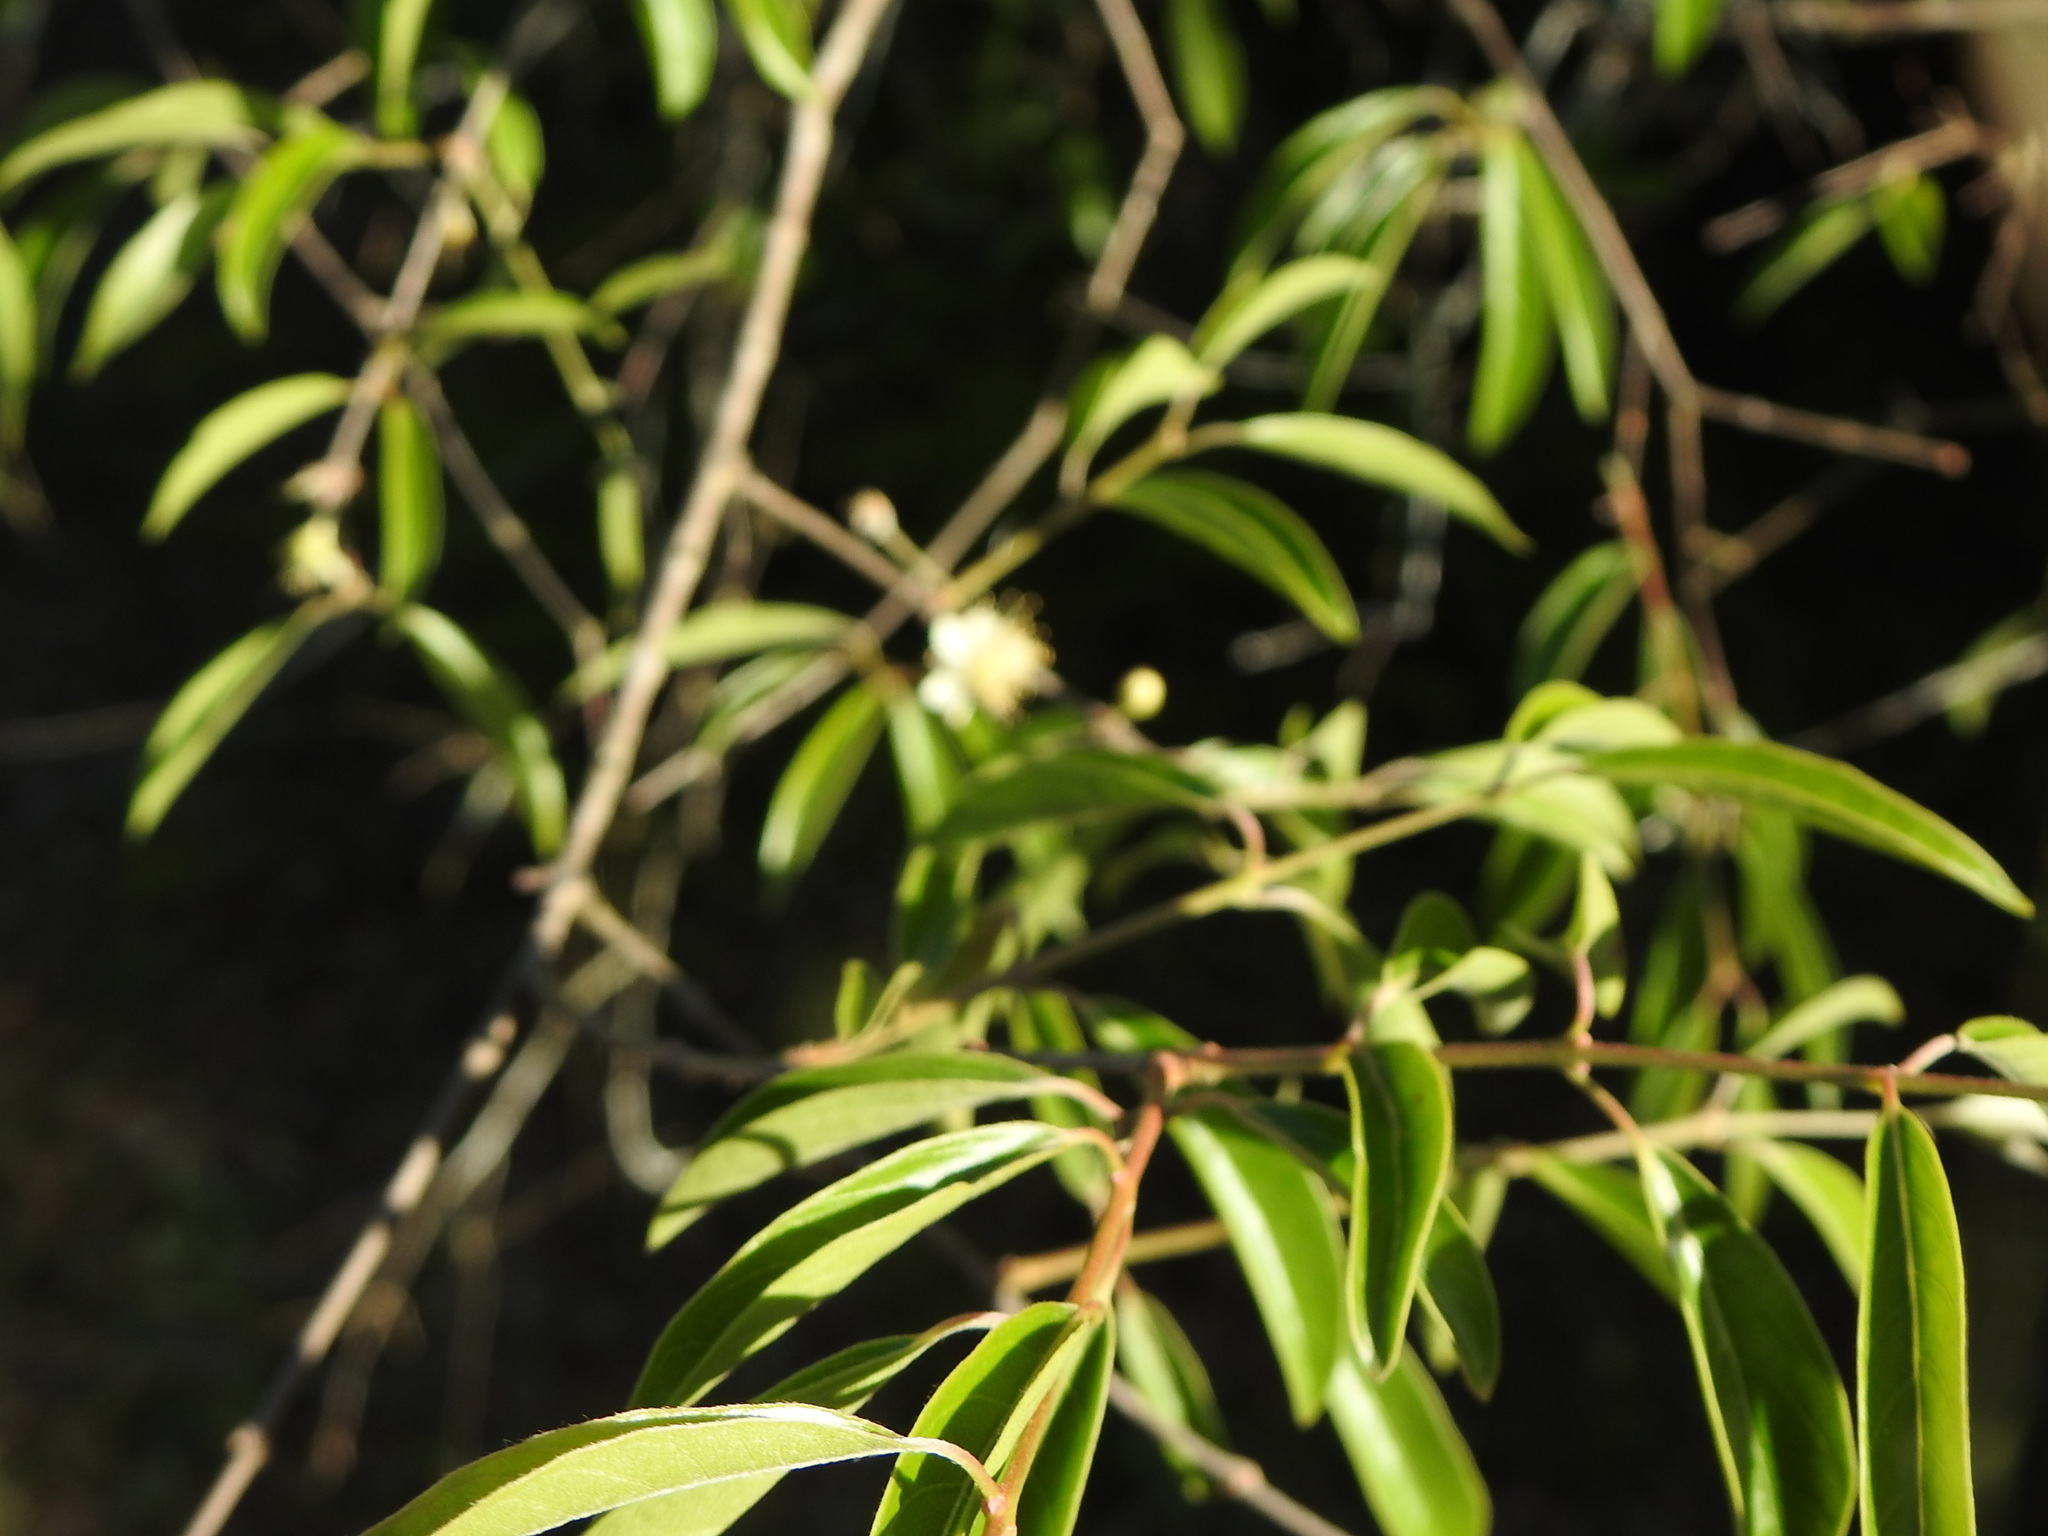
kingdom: Plantae
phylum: Tracheophyta
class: Magnoliopsida
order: Myrtales
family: Myrtaceae
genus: Eugenia
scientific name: Eugenia myrcianthes
